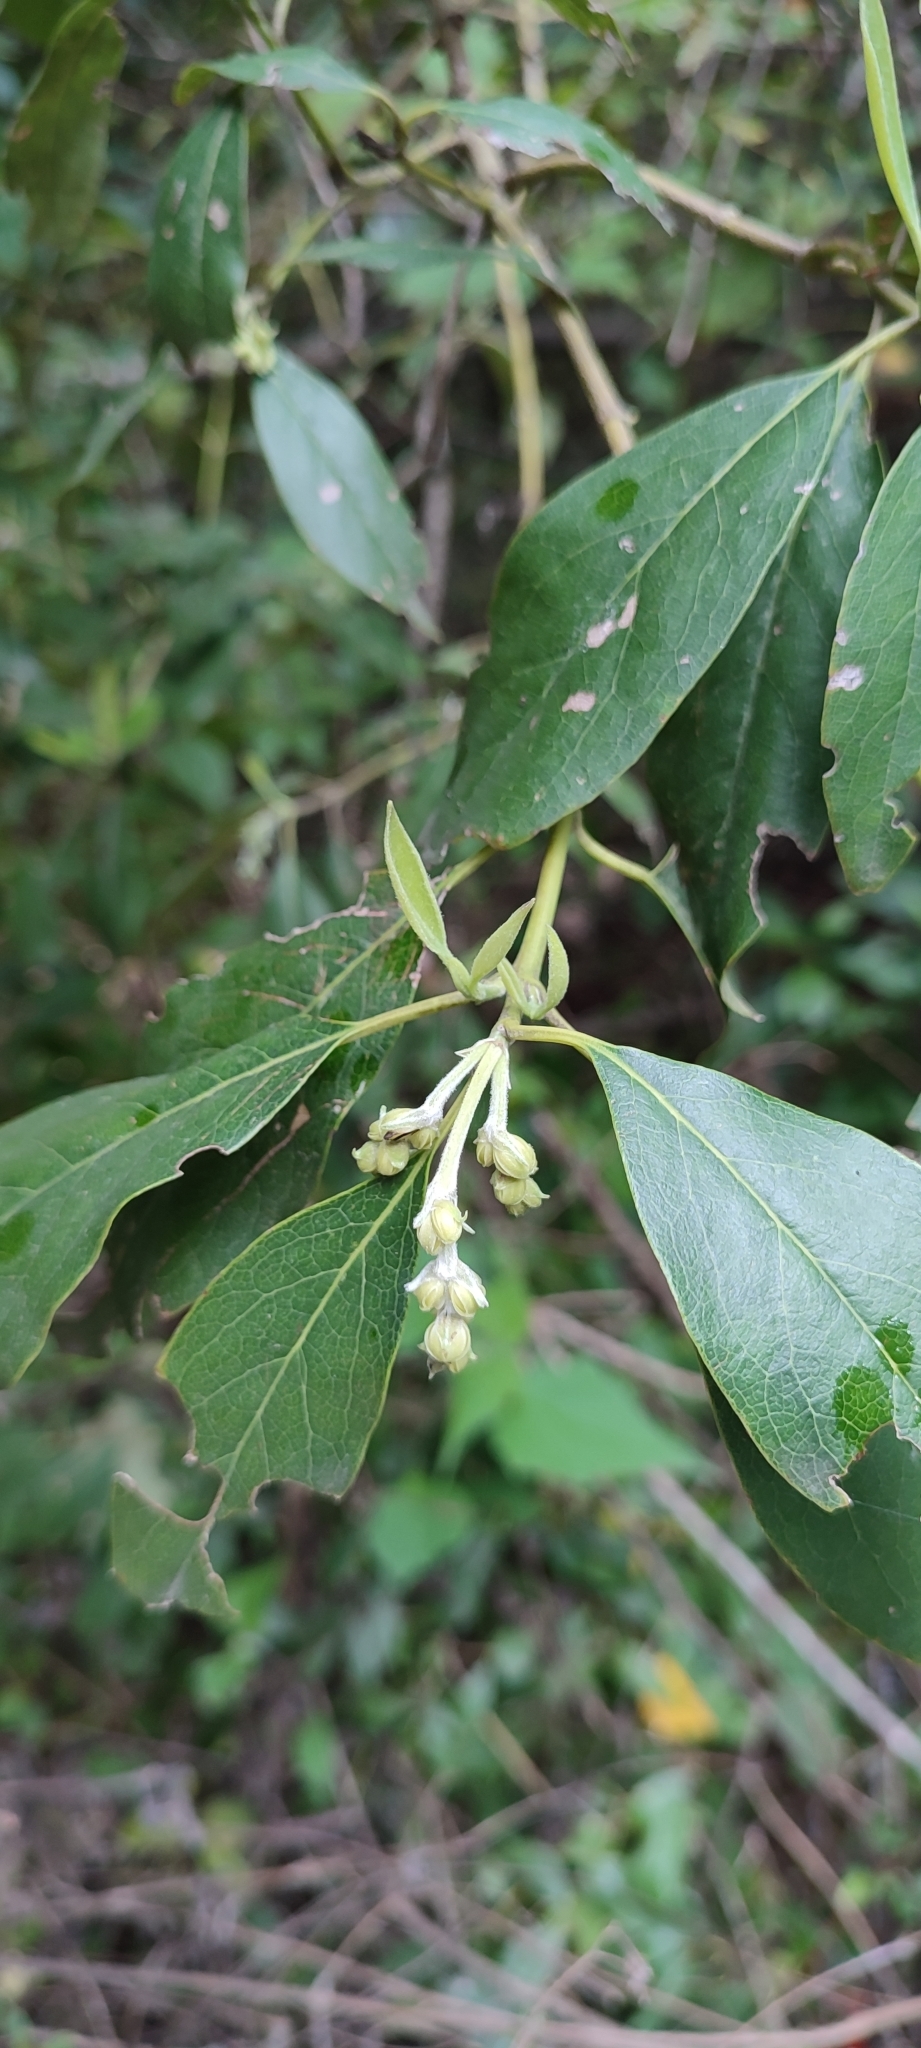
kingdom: Plantae
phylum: Tracheophyta
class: Magnoliopsida
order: Garryales
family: Garryaceae
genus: Garrya
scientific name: Garrya laurifolia
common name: Cuachichic
